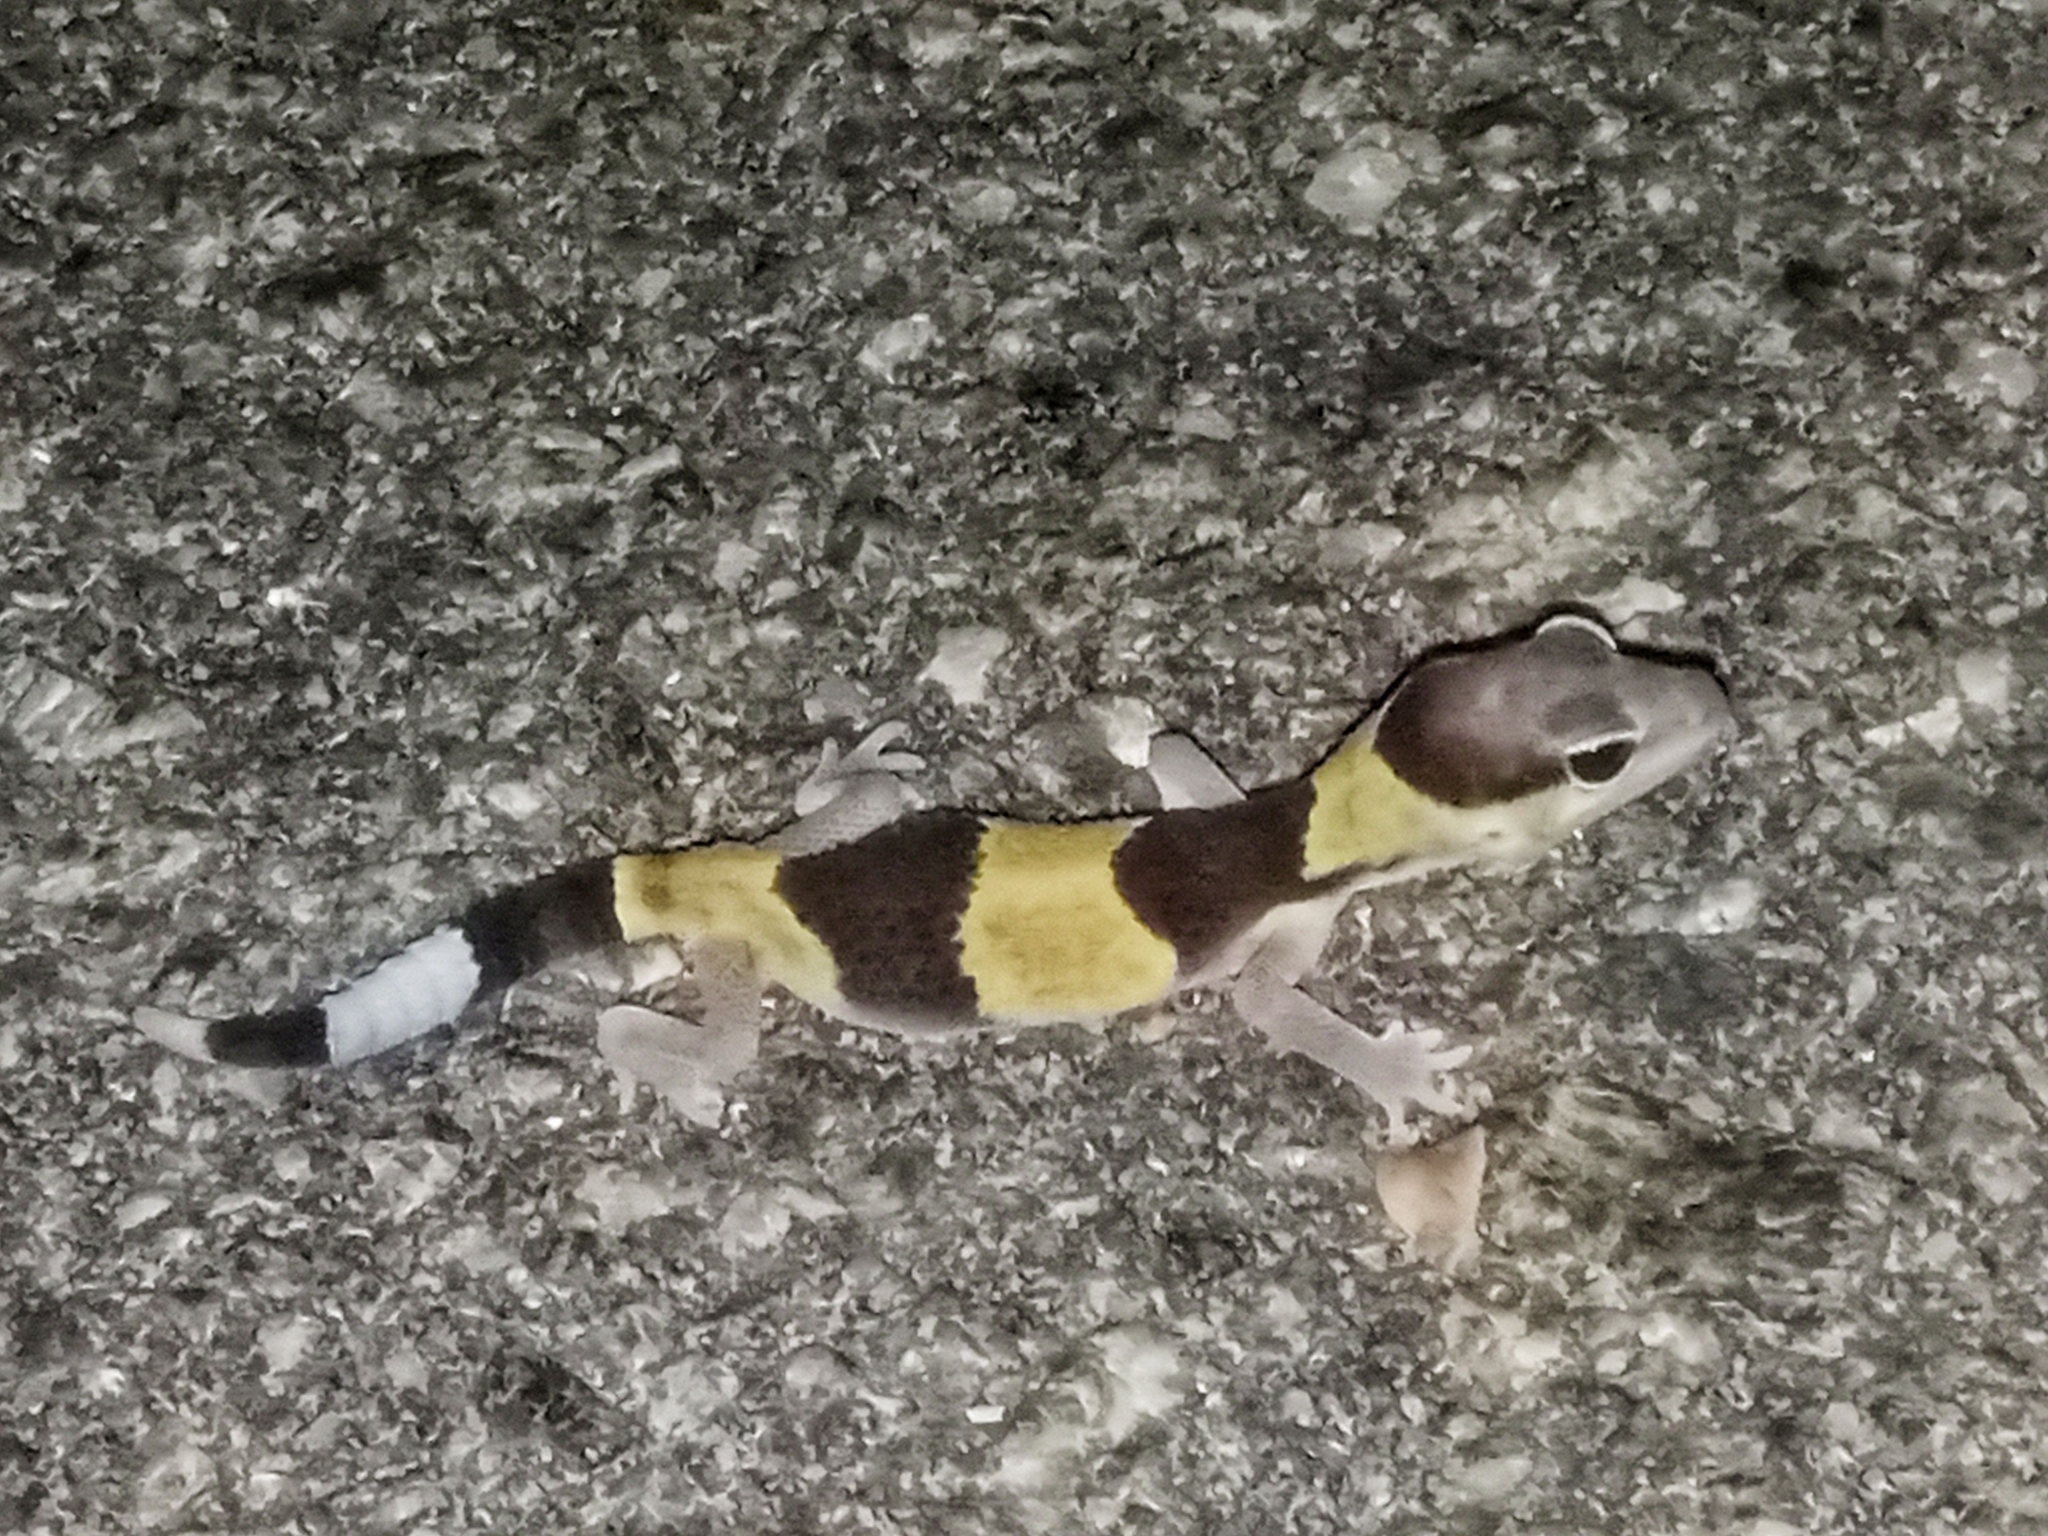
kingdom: Animalia
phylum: Chordata
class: Squamata
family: Eublepharidae
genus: Hemitheconyx
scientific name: Hemitheconyx caudicinctus
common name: Fat-tail gecko
